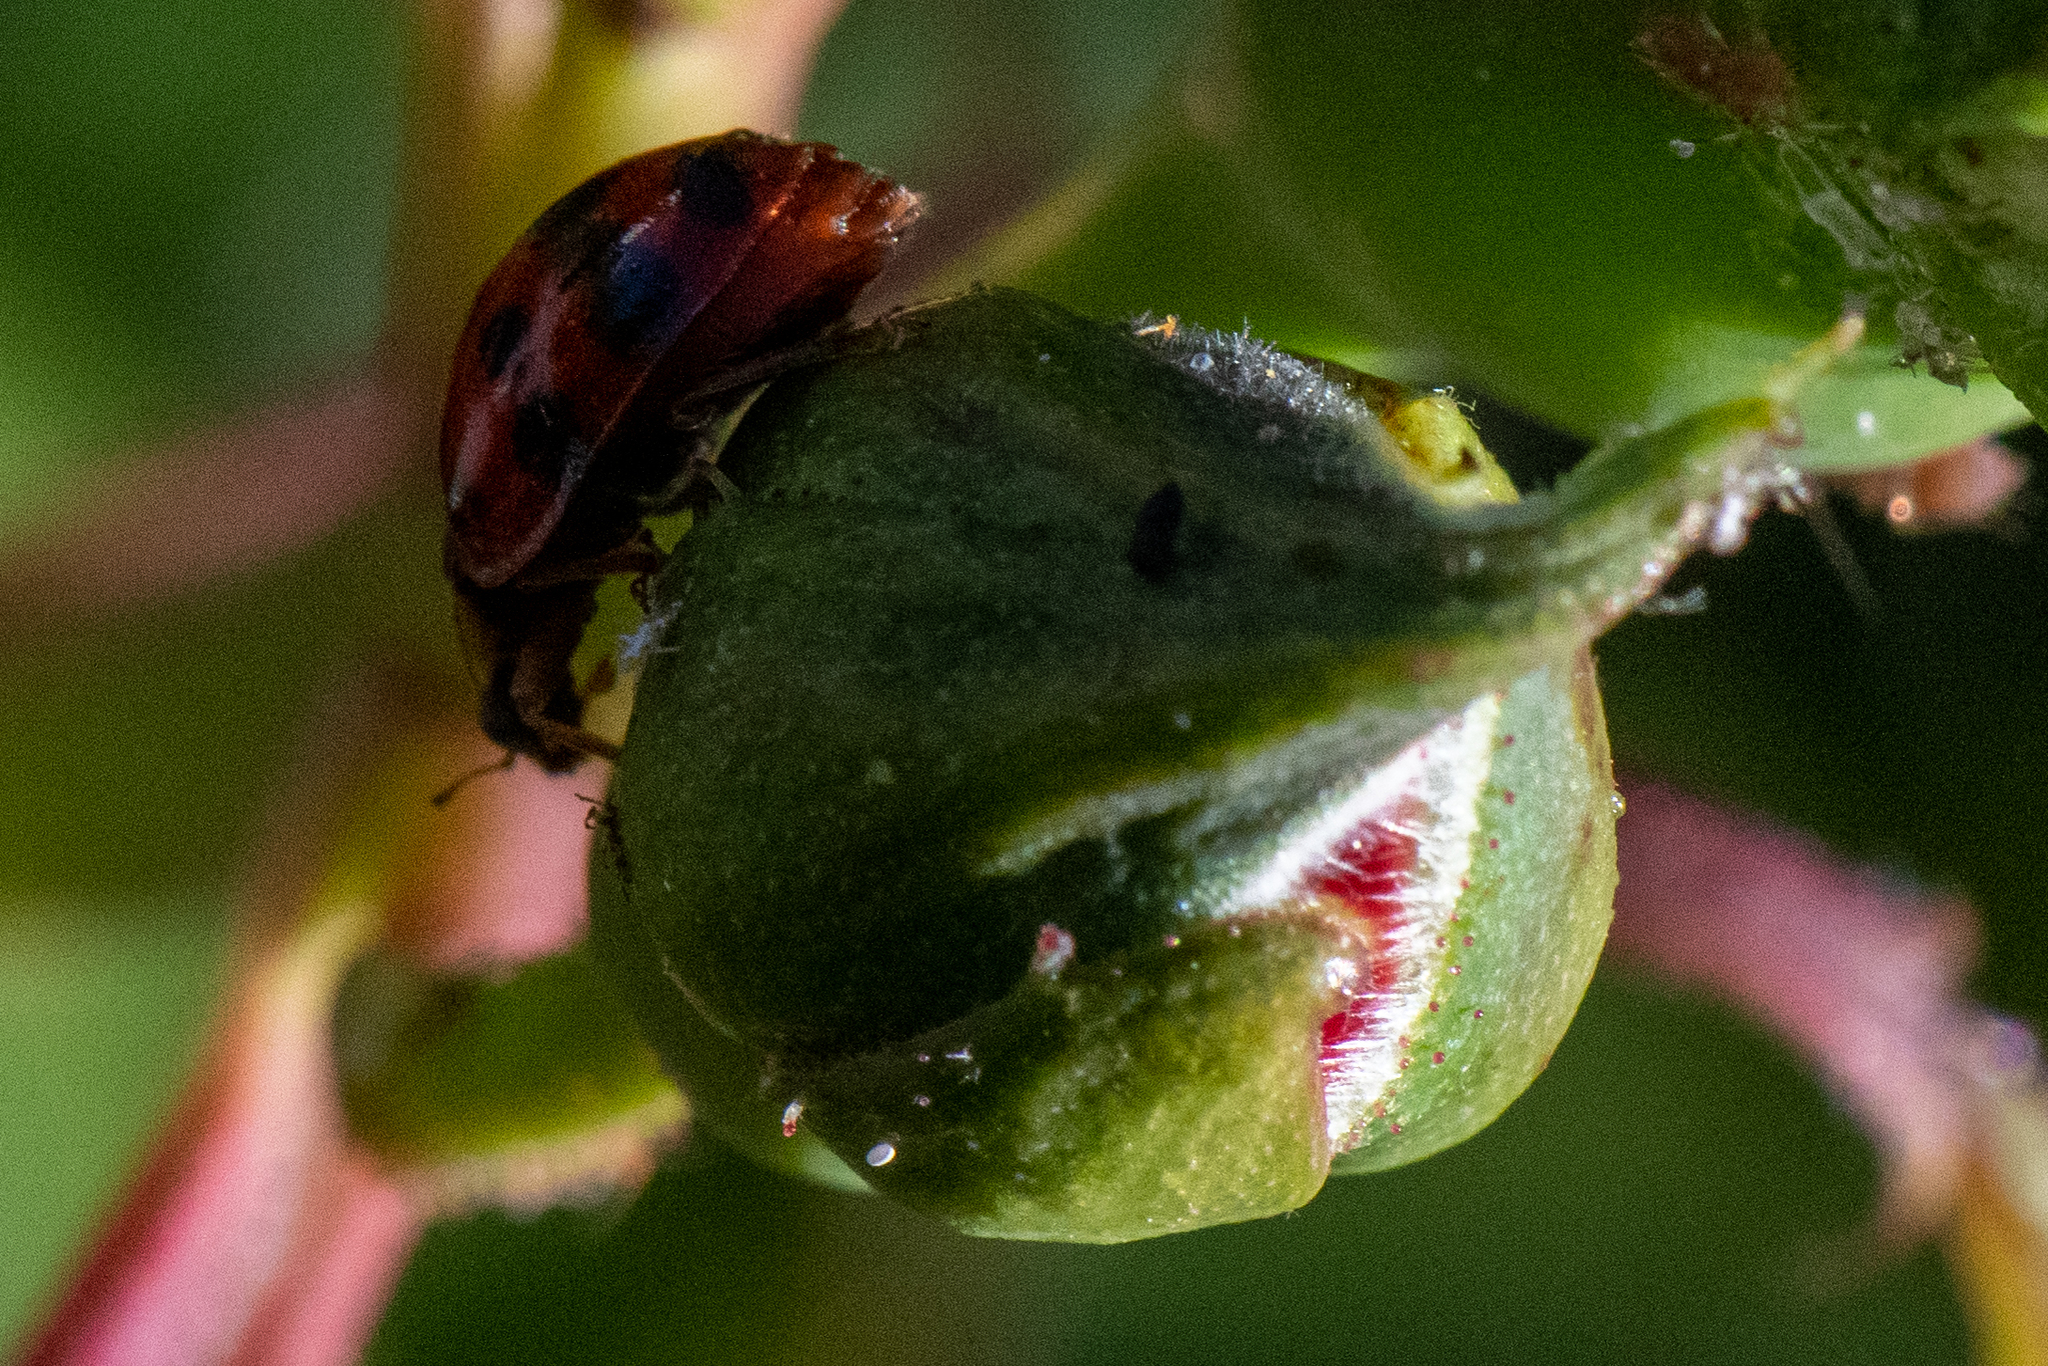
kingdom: Animalia
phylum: Arthropoda
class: Insecta
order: Coleoptera
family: Coccinellidae
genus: Harmonia
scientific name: Harmonia axyridis
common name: Harlequin ladybird
